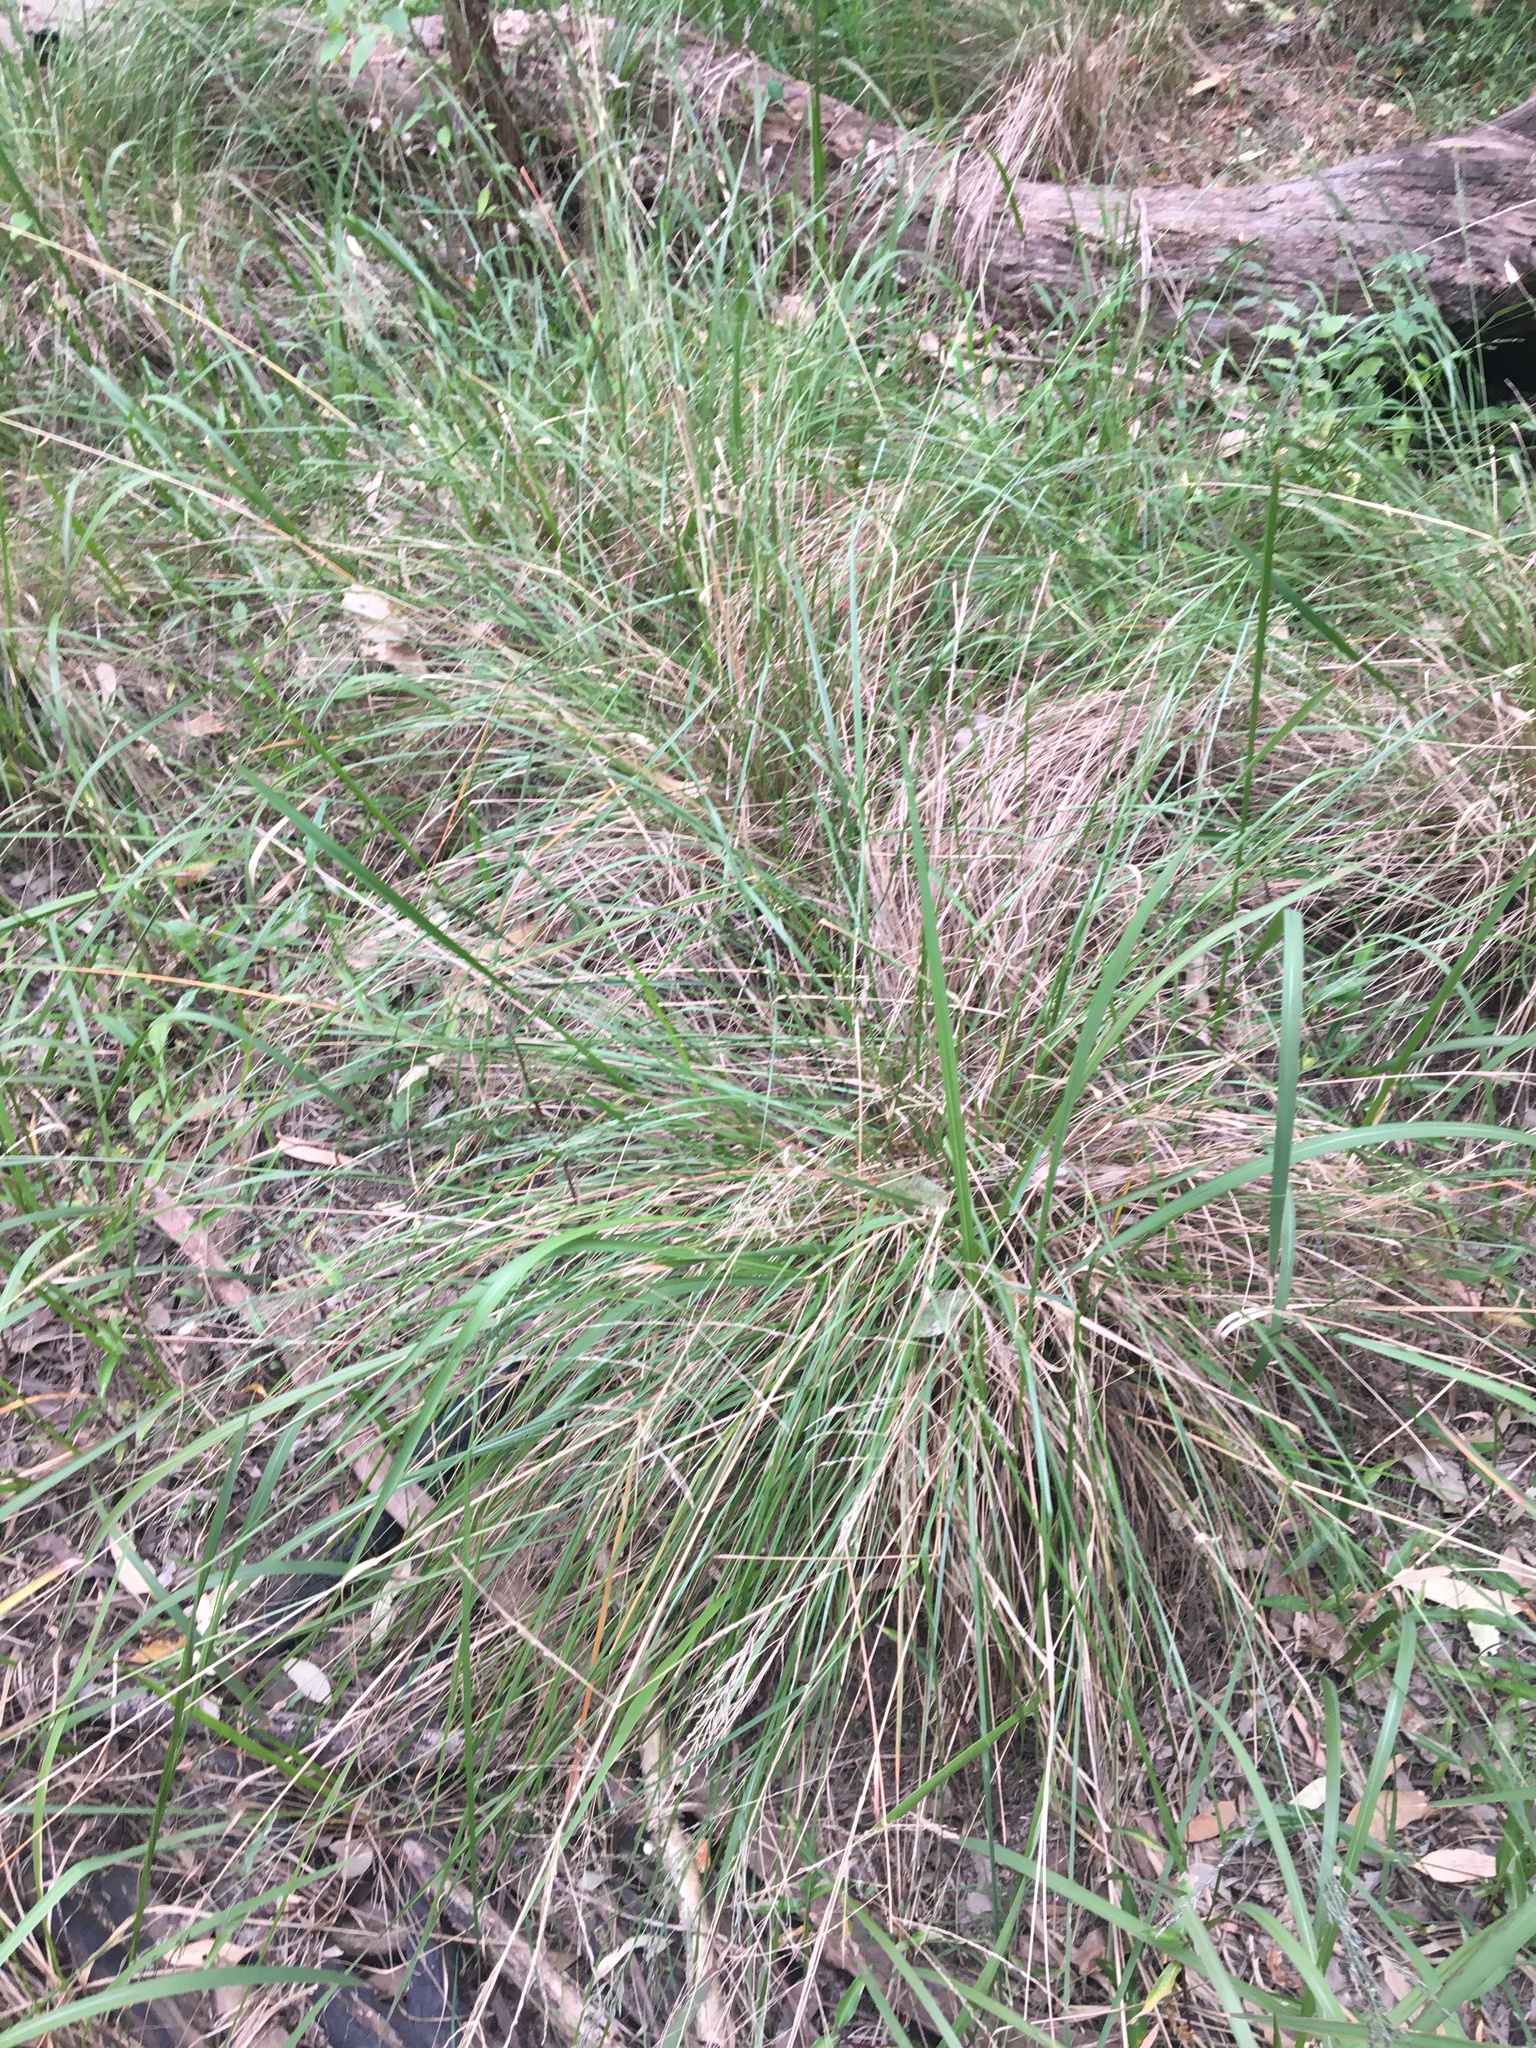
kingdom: Plantae
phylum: Tracheophyta
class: Liliopsida
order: Poales
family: Poaceae
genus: Eragrostis
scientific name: Eragrostis curvula
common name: African love-grass
